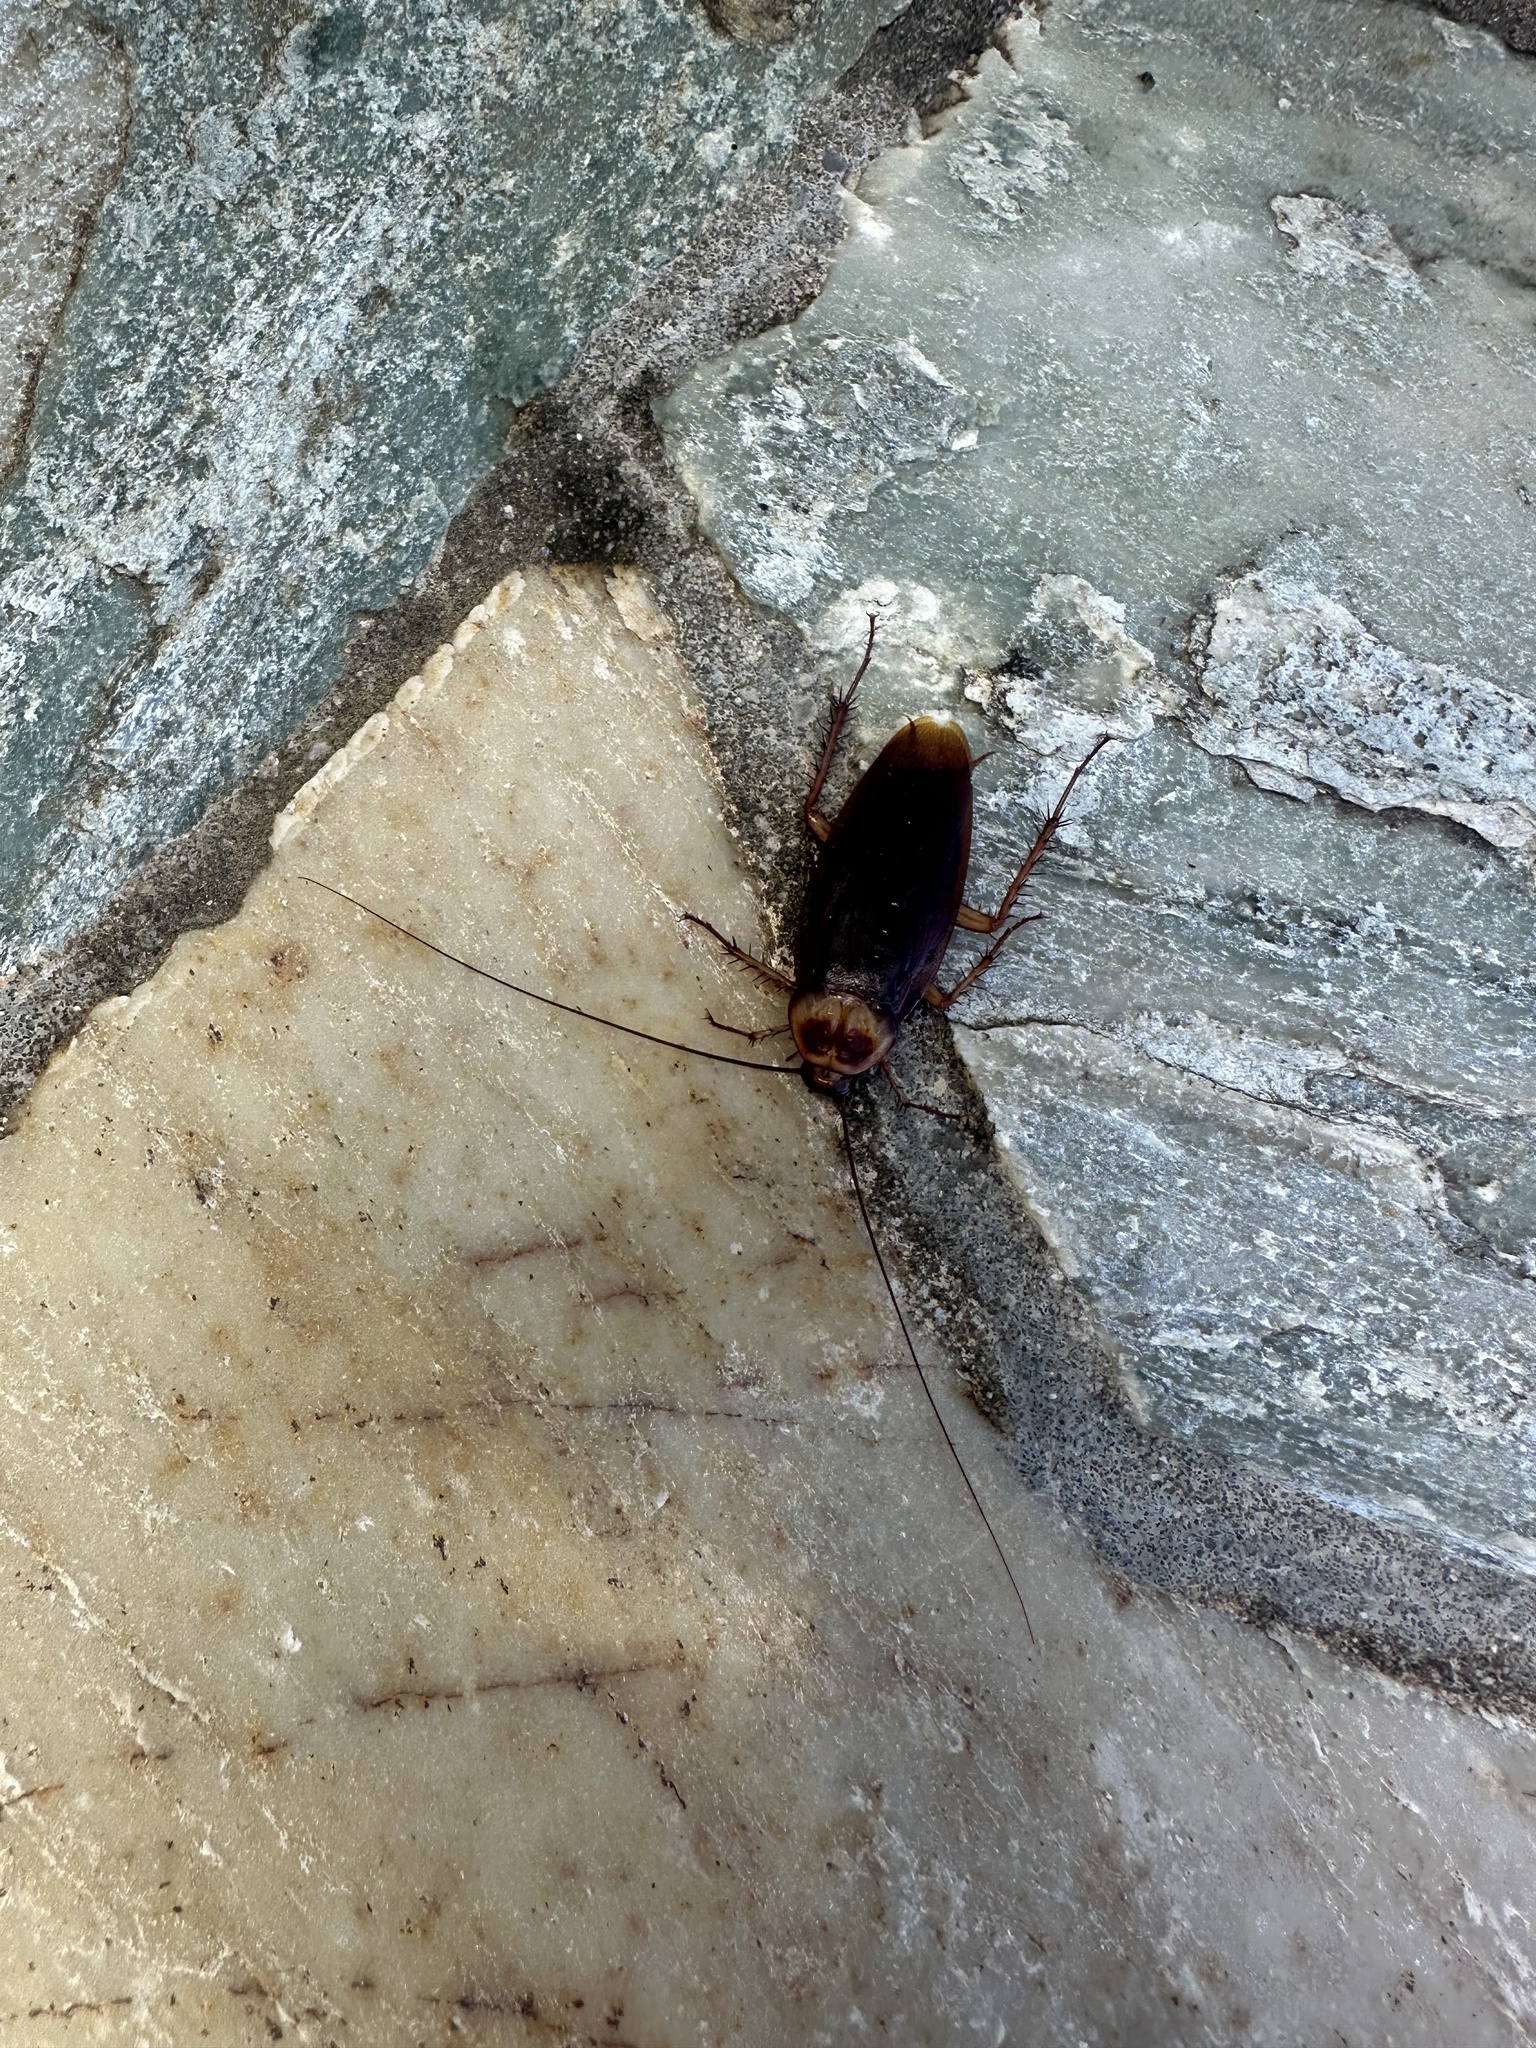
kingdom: Animalia
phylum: Arthropoda
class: Insecta
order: Blattodea
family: Blattidae
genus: Periplaneta
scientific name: Periplaneta americana
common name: American cockroach
